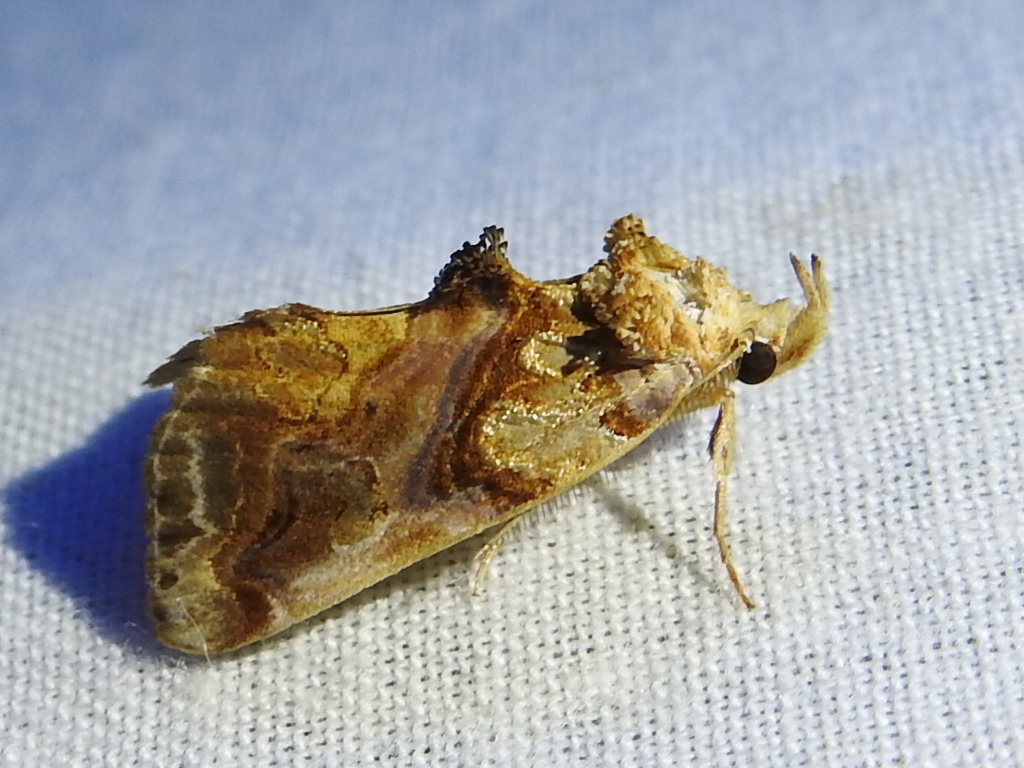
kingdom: Animalia
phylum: Arthropoda
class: Insecta
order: Lepidoptera
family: Erebidae
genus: Plusiodonta
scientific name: Plusiodonta compressipalpis
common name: Moonseed moth
